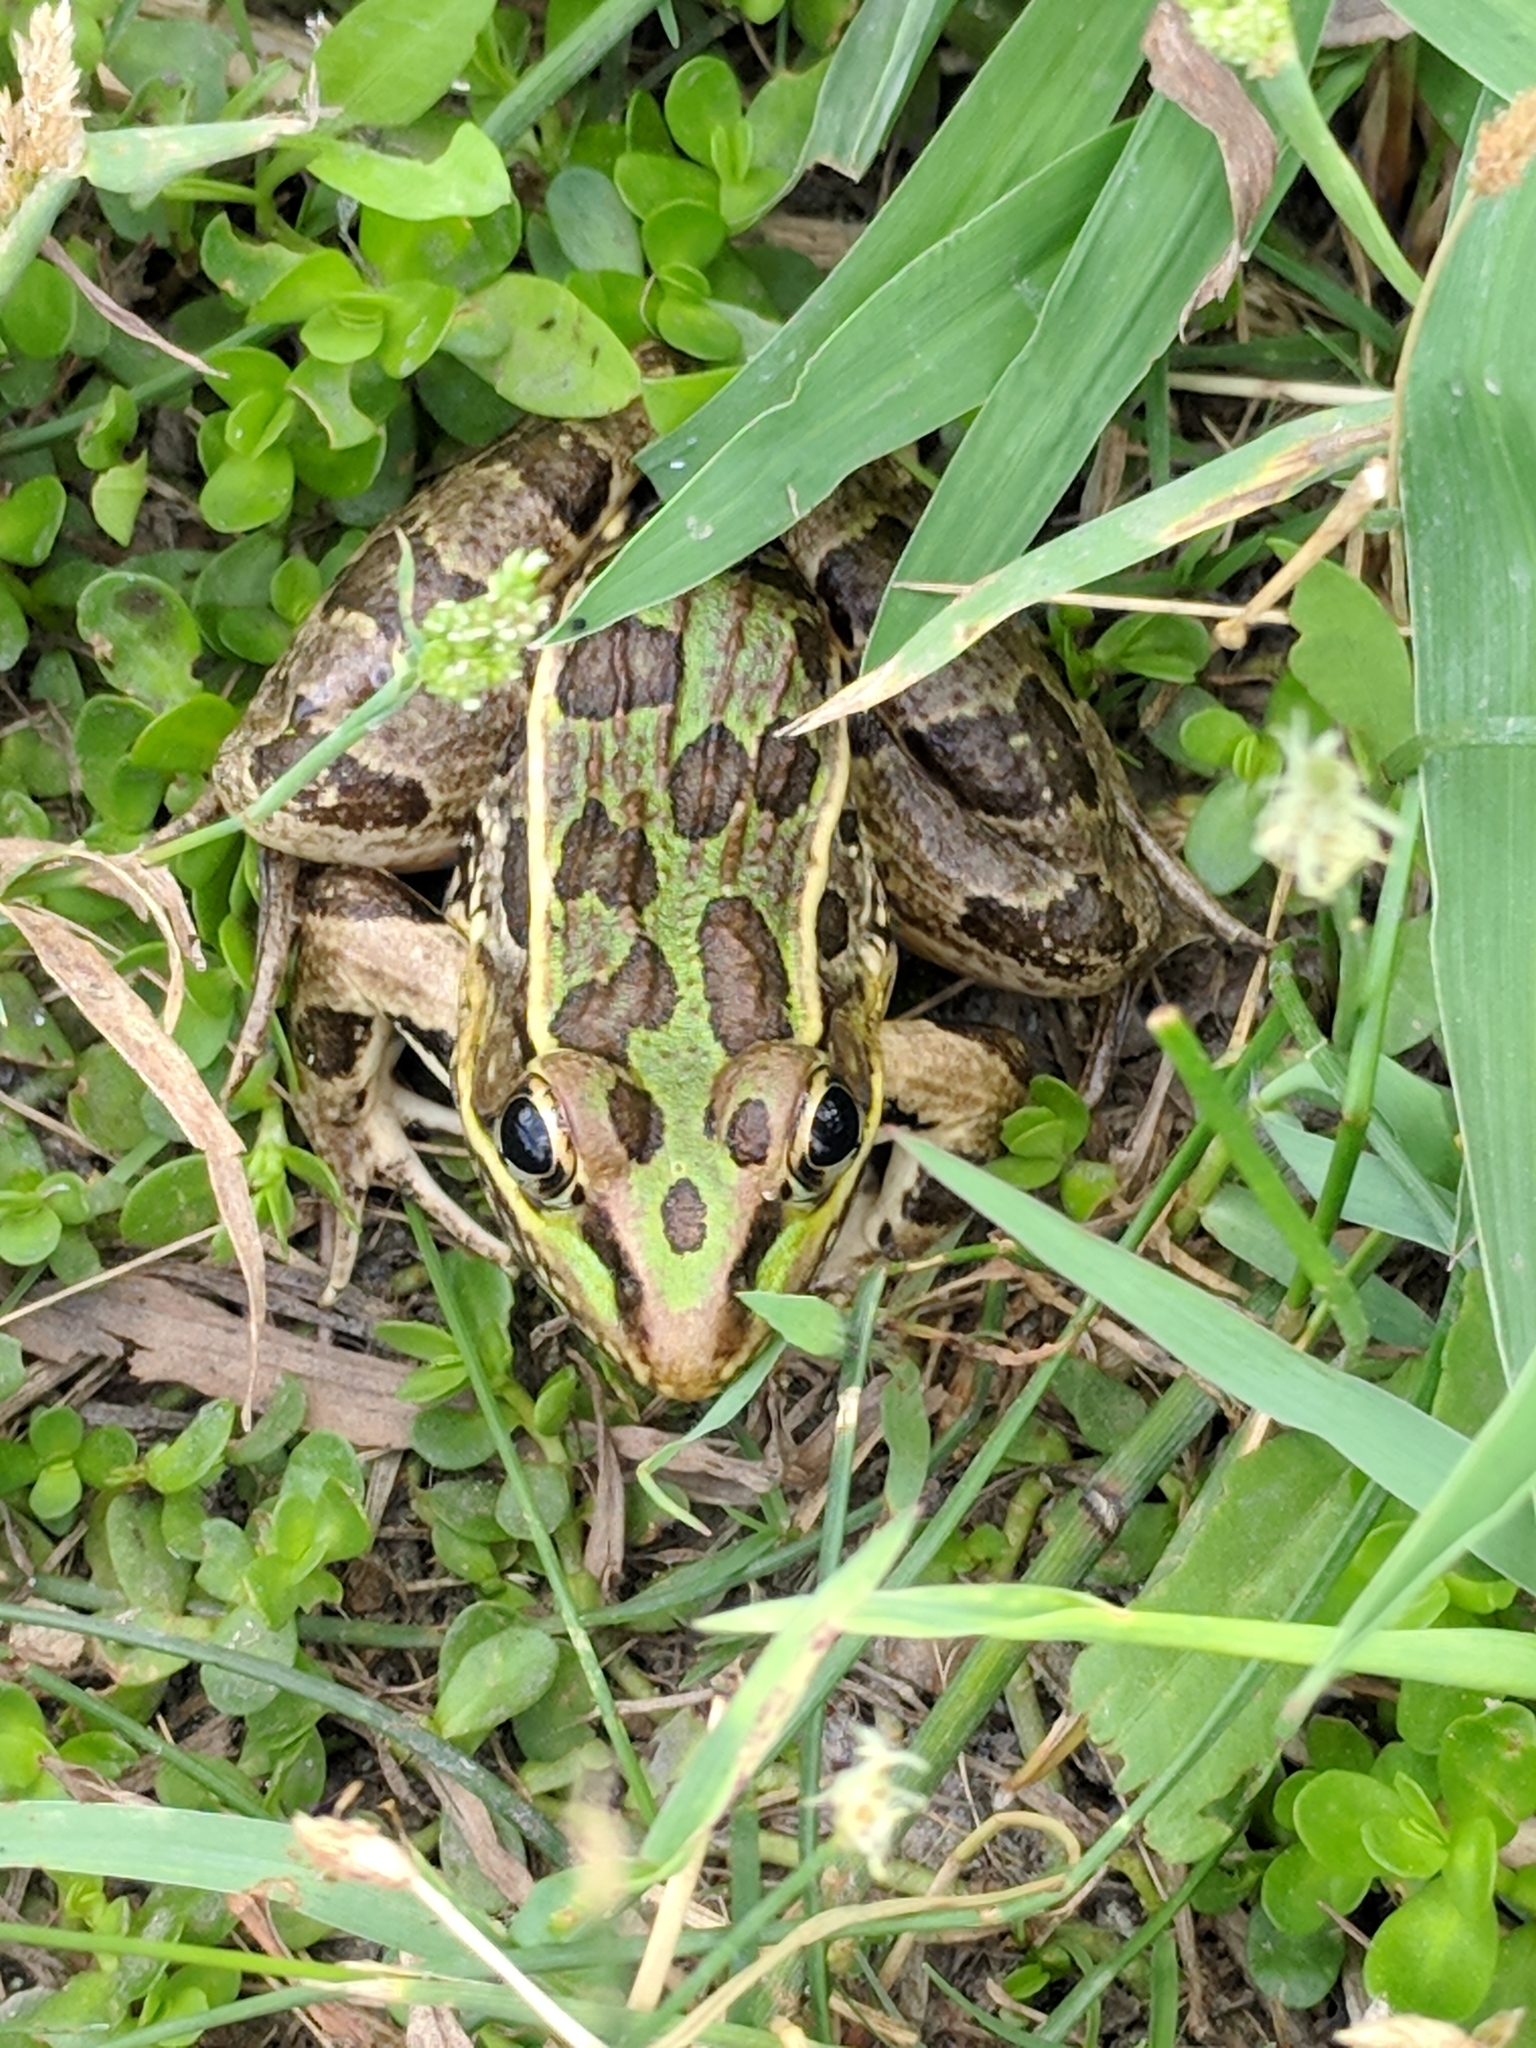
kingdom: Animalia
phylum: Chordata
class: Amphibia
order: Anura
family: Ranidae
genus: Lithobates
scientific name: Lithobates sphenocephalus
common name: Southern leopard frog
